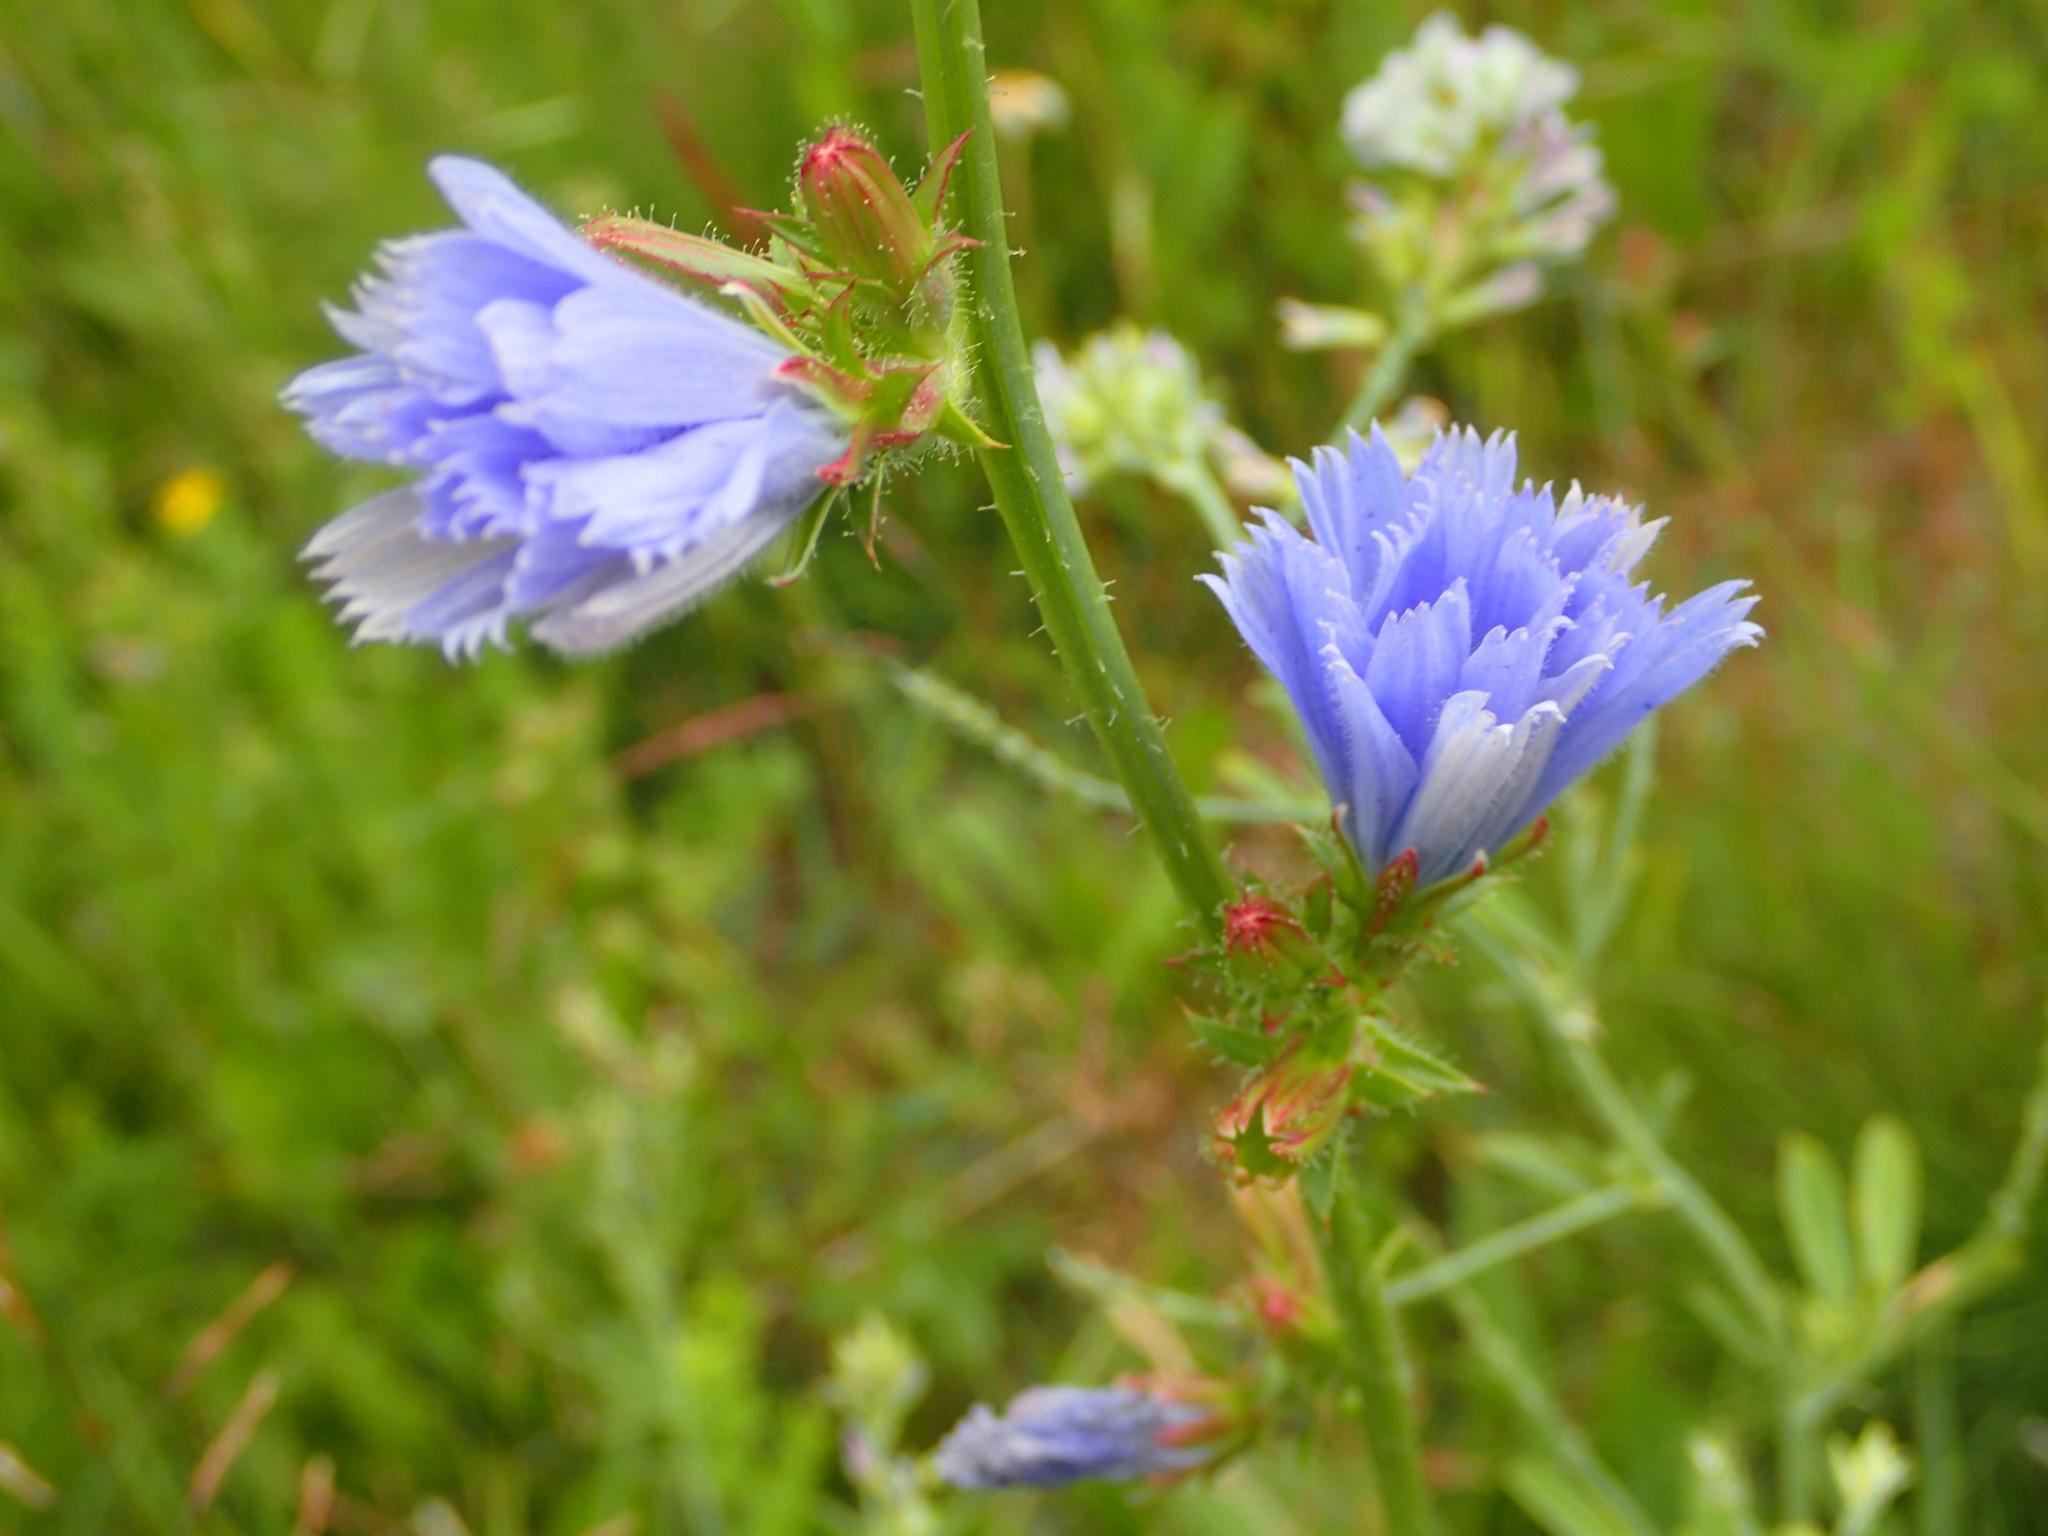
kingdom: Plantae
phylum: Tracheophyta
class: Magnoliopsida
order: Asterales
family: Asteraceae
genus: Cichorium
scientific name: Cichorium intybus
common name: Chicory
